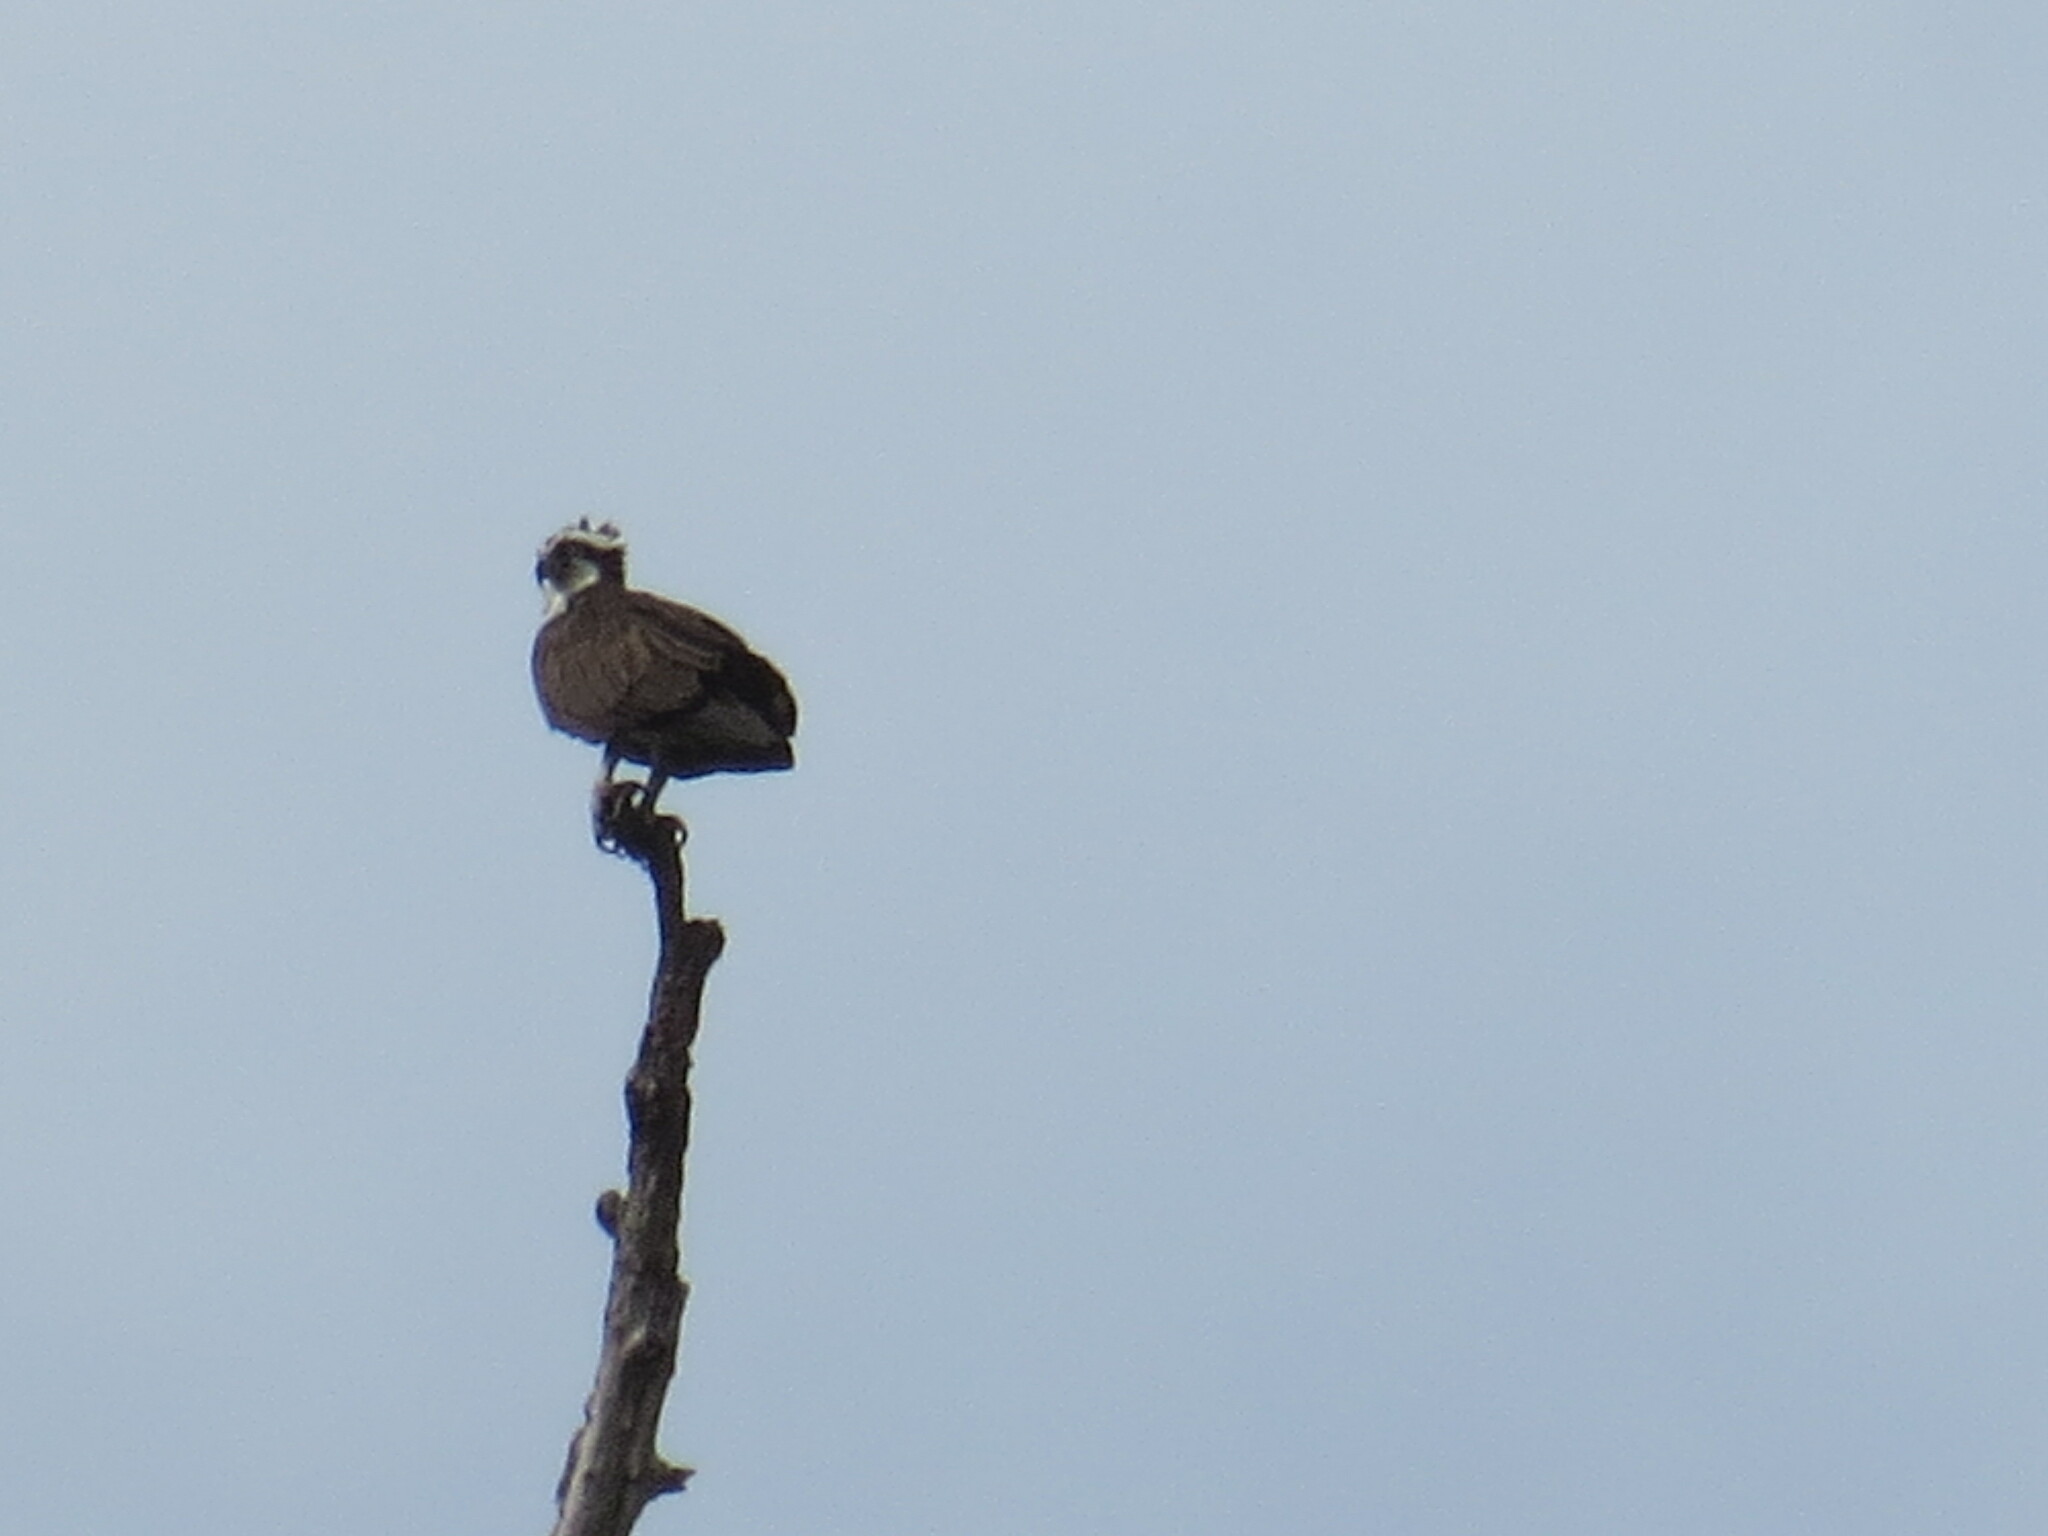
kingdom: Animalia
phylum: Chordata
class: Aves
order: Accipitriformes
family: Pandionidae
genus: Pandion
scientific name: Pandion haliaetus
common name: Osprey
